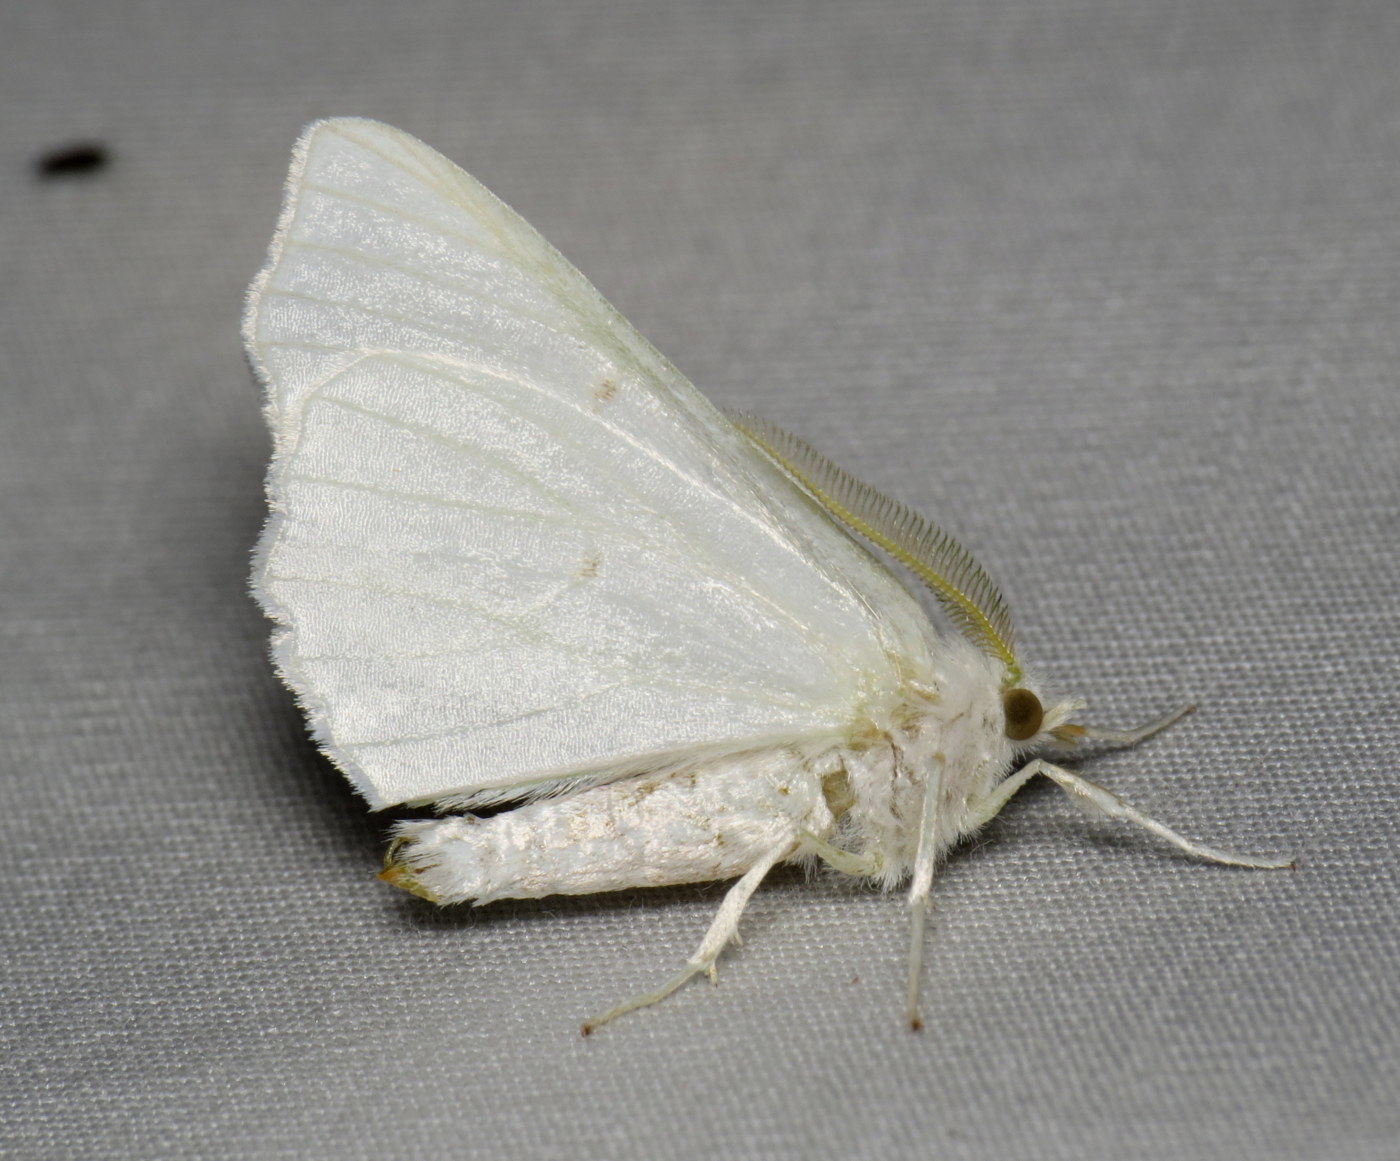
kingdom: Animalia
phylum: Arthropoda
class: Insecta
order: Lepidoptera
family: Geometridae
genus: Ennomos
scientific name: Ennomos subsignaria
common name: Elm spanworm
